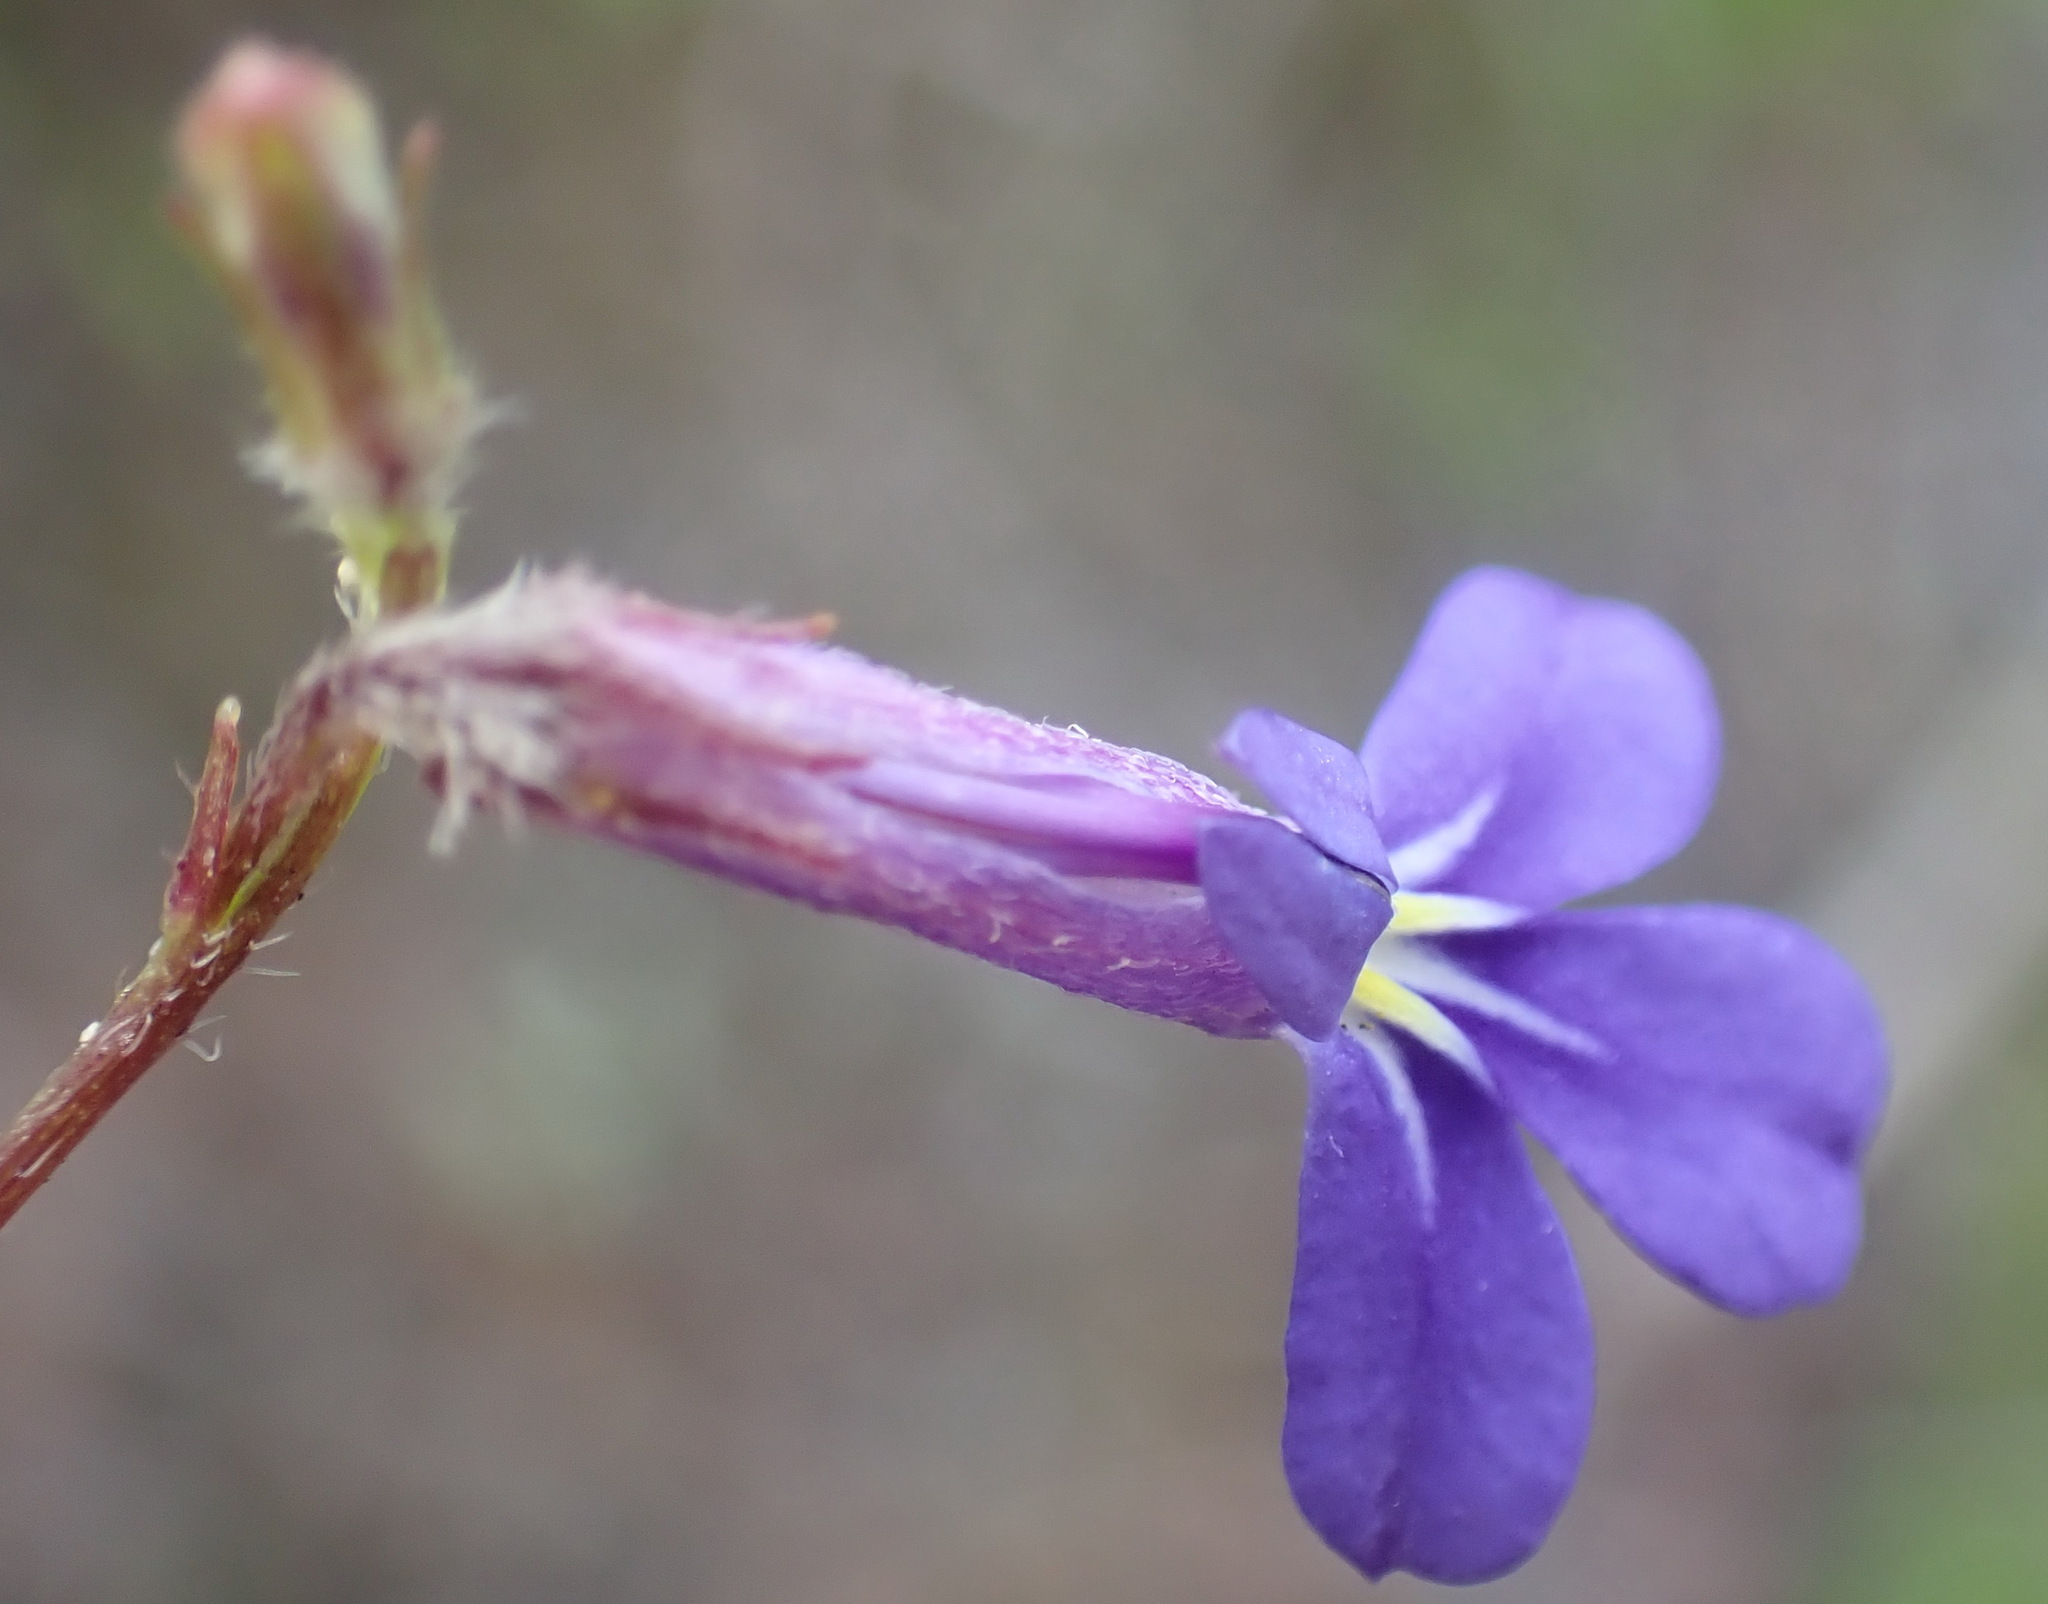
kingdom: Plantae
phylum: Tracheophyta
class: Magnoliopsida
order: Asterales
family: Campanulaceae
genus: Lobelia
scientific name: Lobelia neglecta
